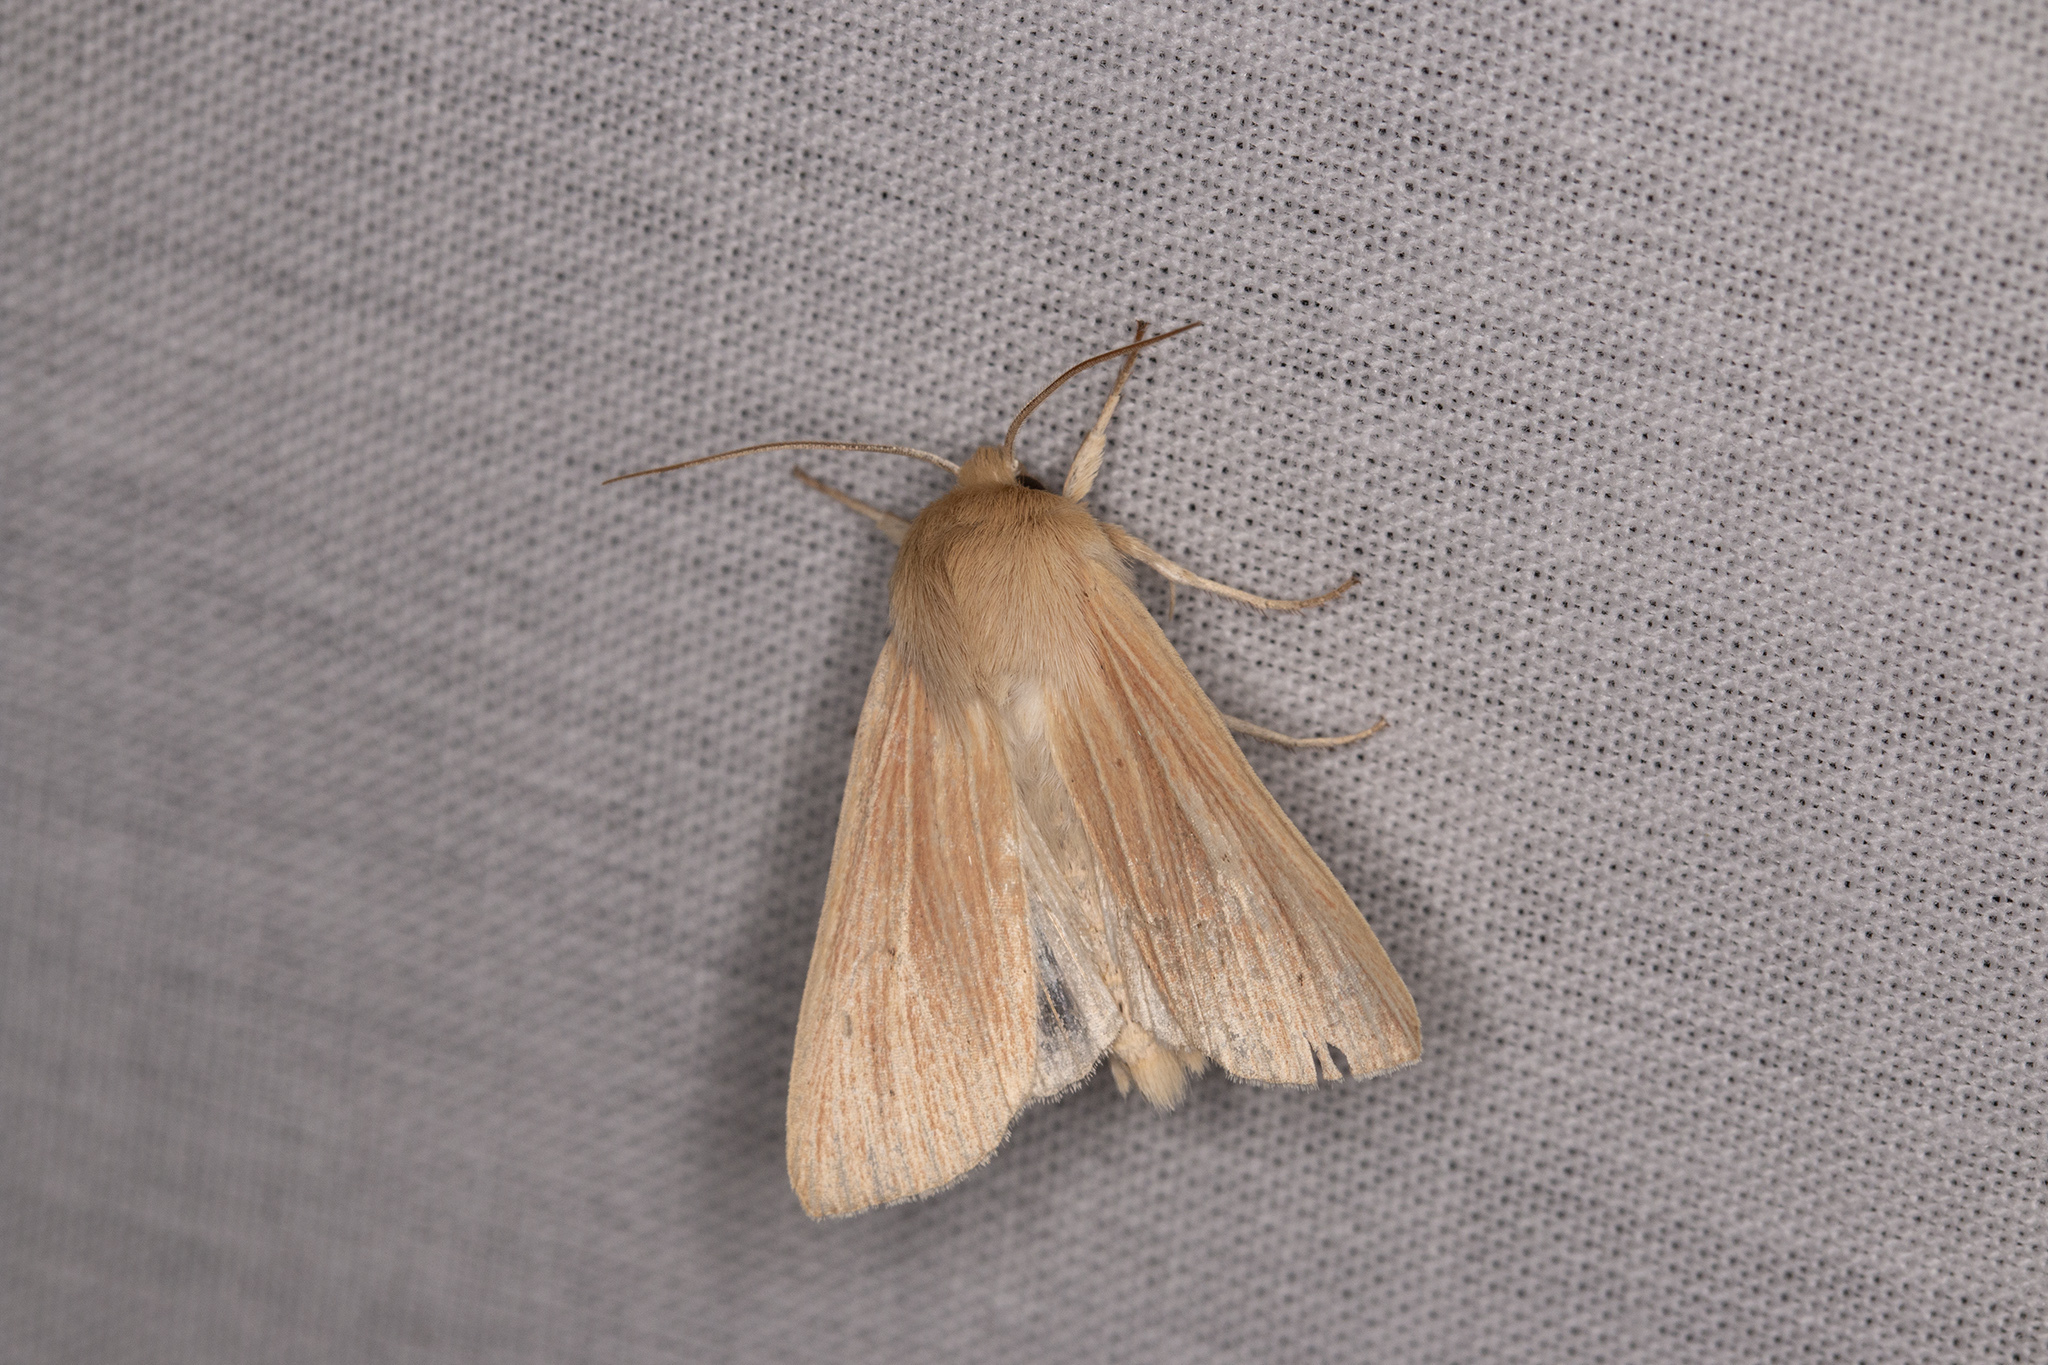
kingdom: Animalia
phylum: Arthropoda
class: Insecta
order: Lepidoptera
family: Noctuidae
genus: Mythimna
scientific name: Mythimna pallens
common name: Common wainscot
